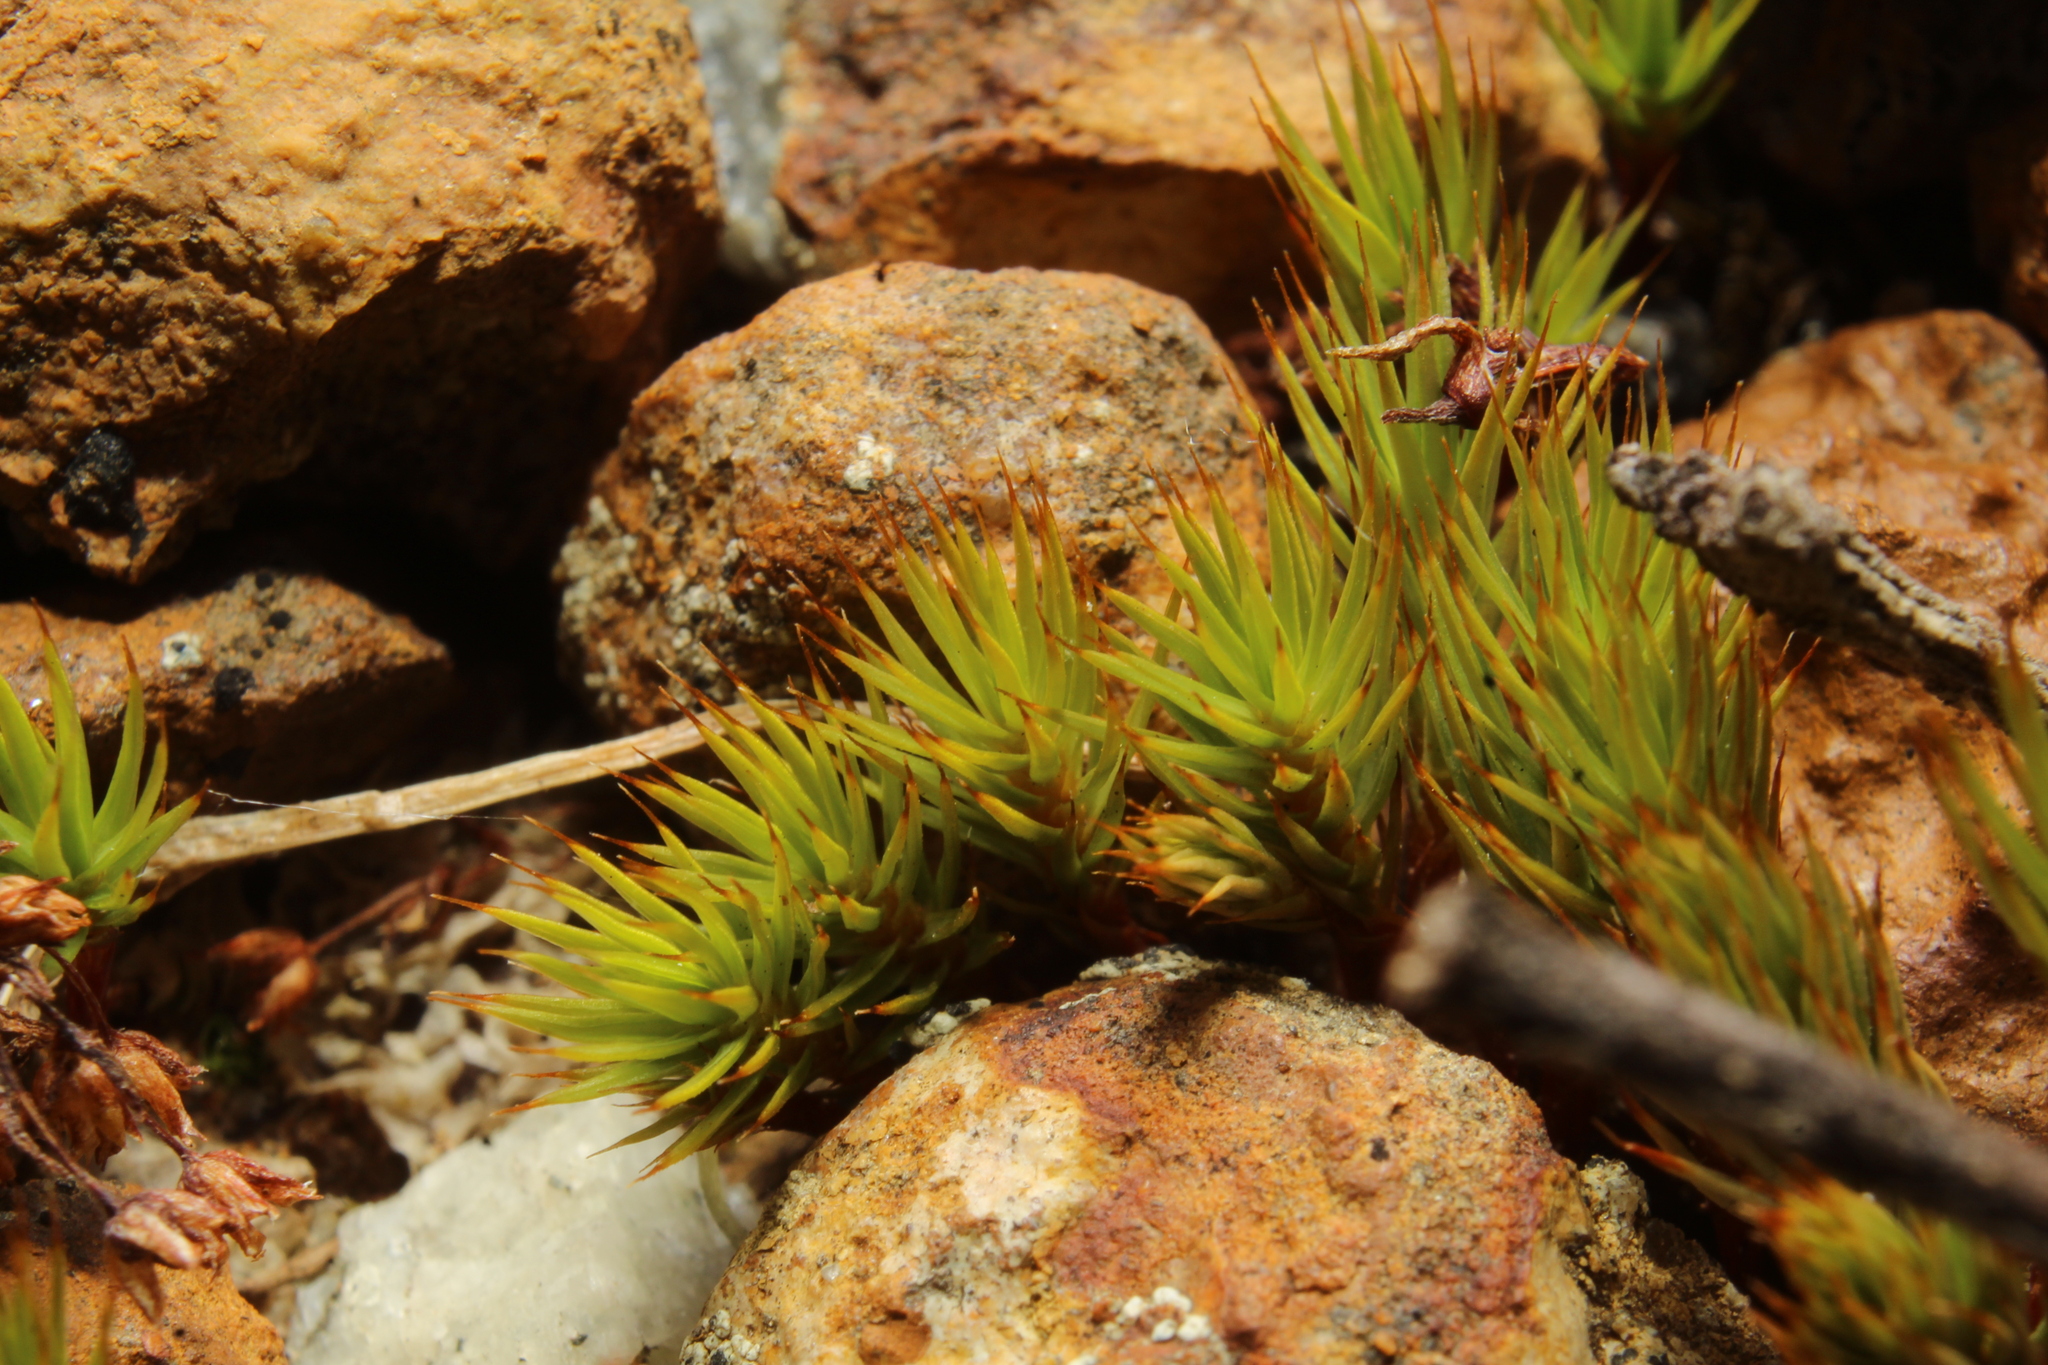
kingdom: Plantae
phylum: Bryophyta
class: Polytrichopsida
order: Polytrichales
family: Polytrichaceae
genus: Polytrichum
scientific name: Polytrichum juniperinum
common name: Juniper haircap moss
